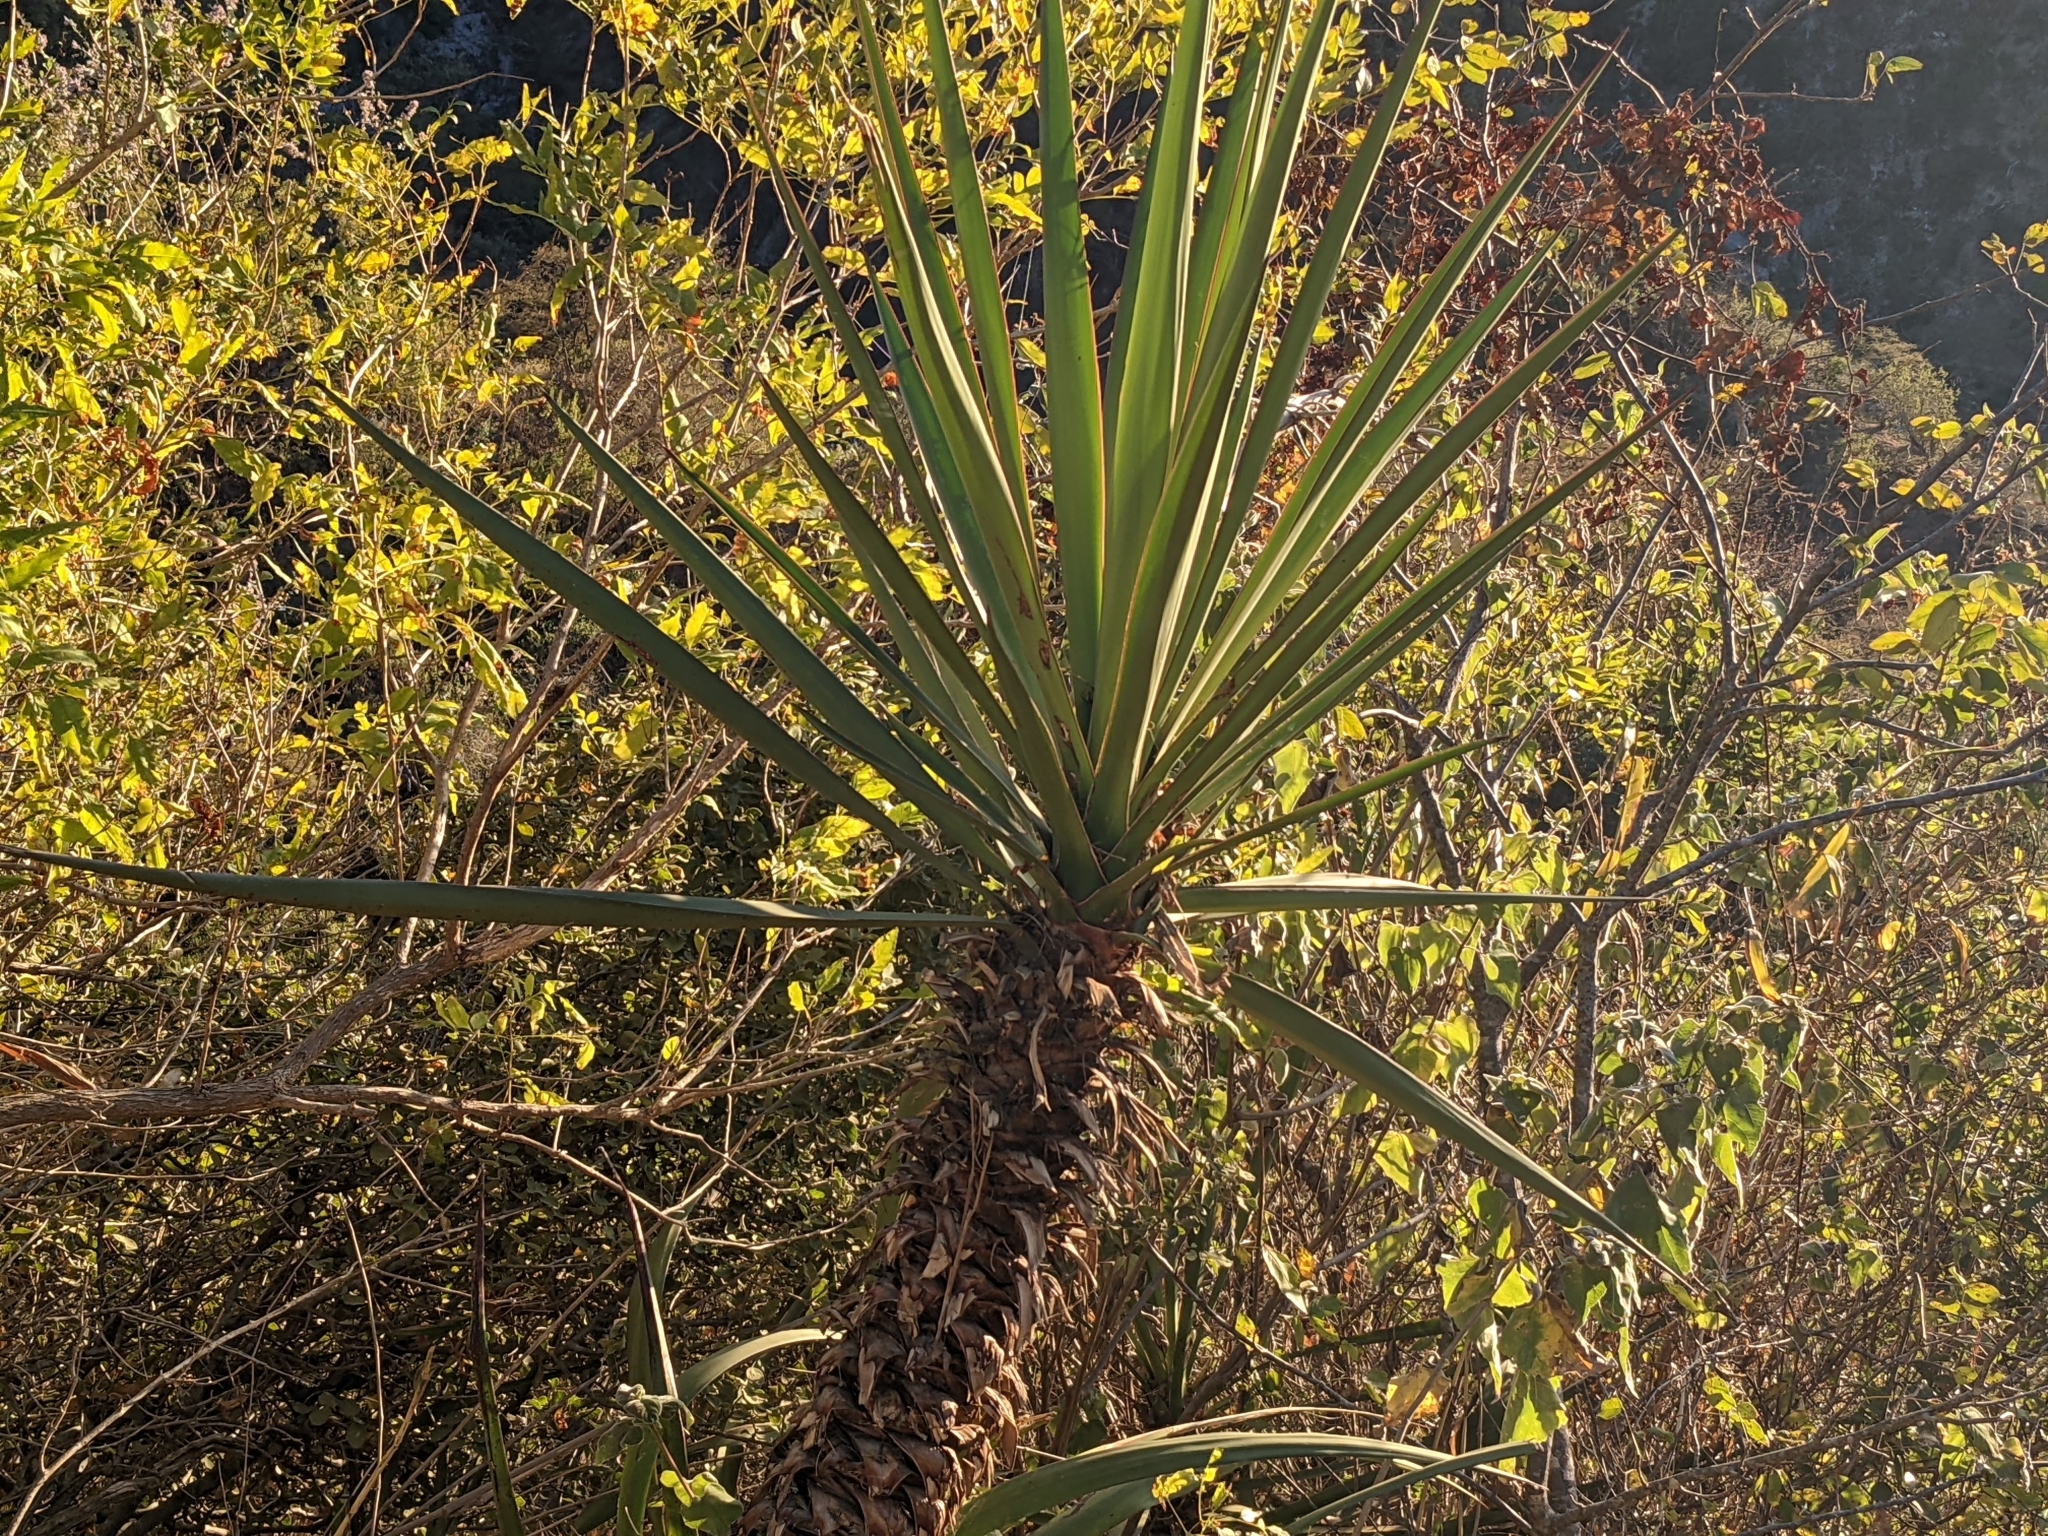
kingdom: Plantae
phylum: Tracheophyta
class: Liliopsida
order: Asparagales
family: Asparagaceae
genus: Yucca
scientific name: Yucca capensis
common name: Cape region yucca
